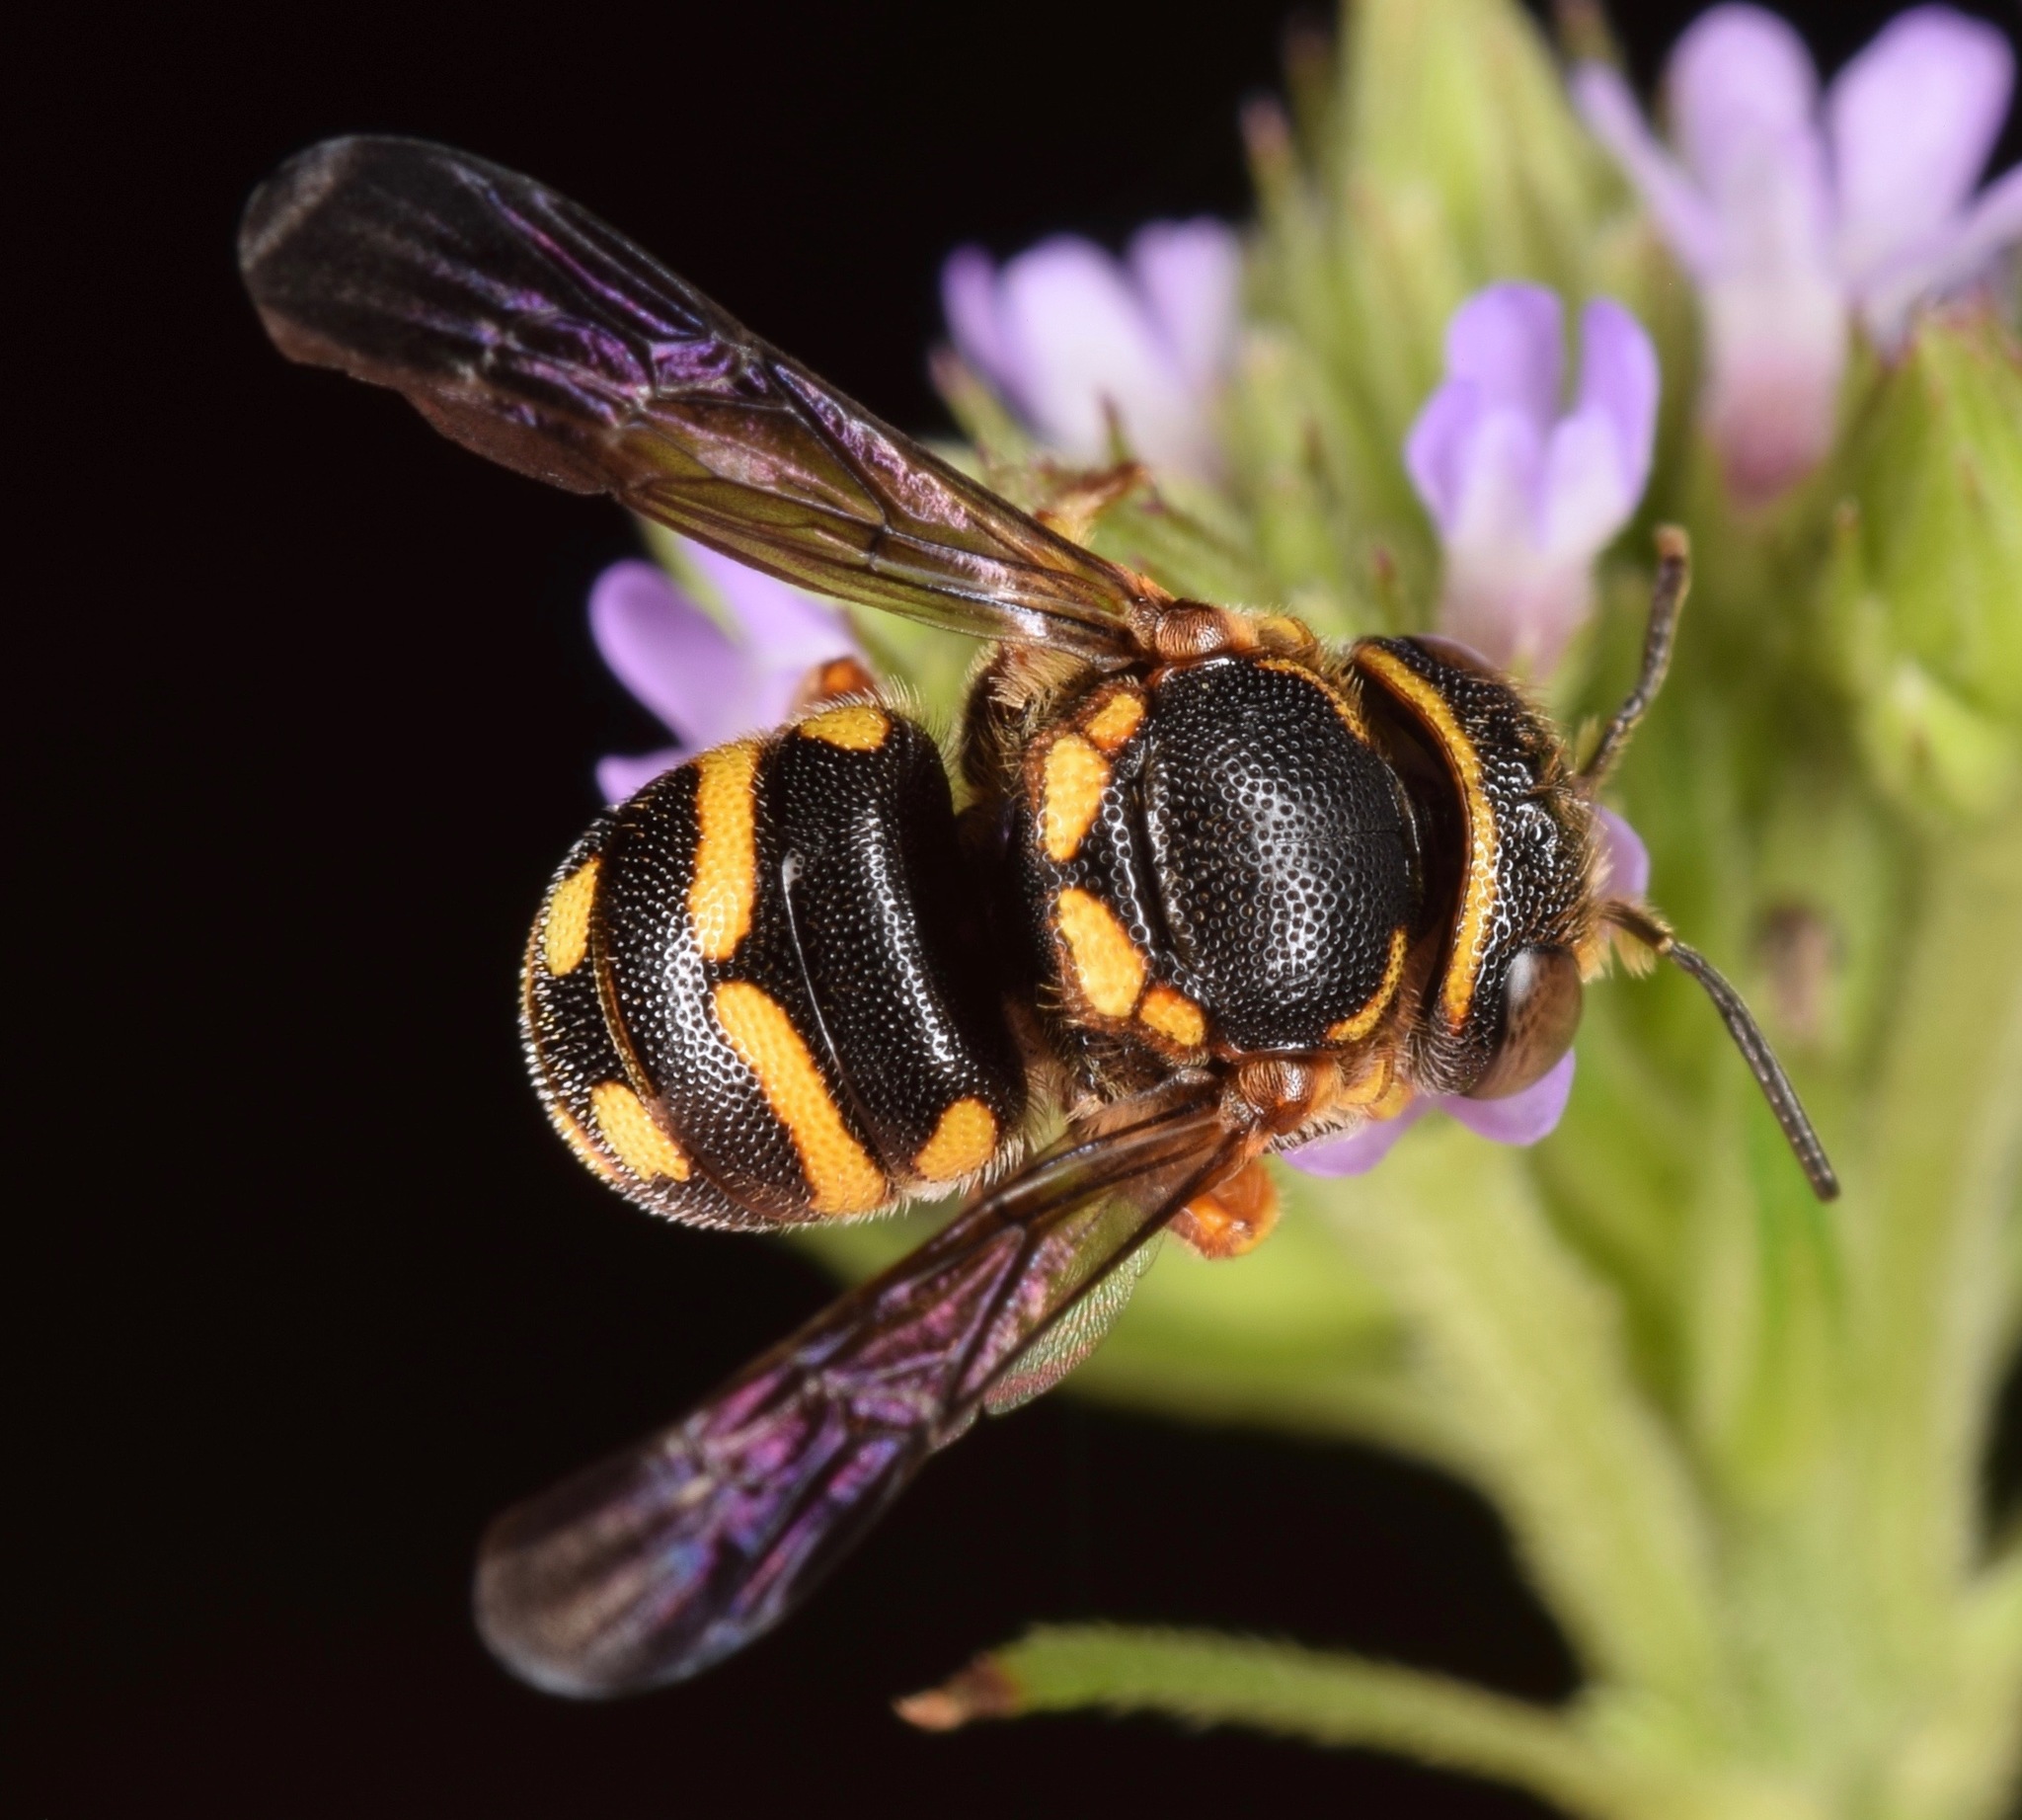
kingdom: Animalia
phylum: Arthropoda
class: Insecta
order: Hymenoptera
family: Megachilidae
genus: Anthidiellum
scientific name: Anthidiellum notatum
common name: Northern rotund-resin bee
